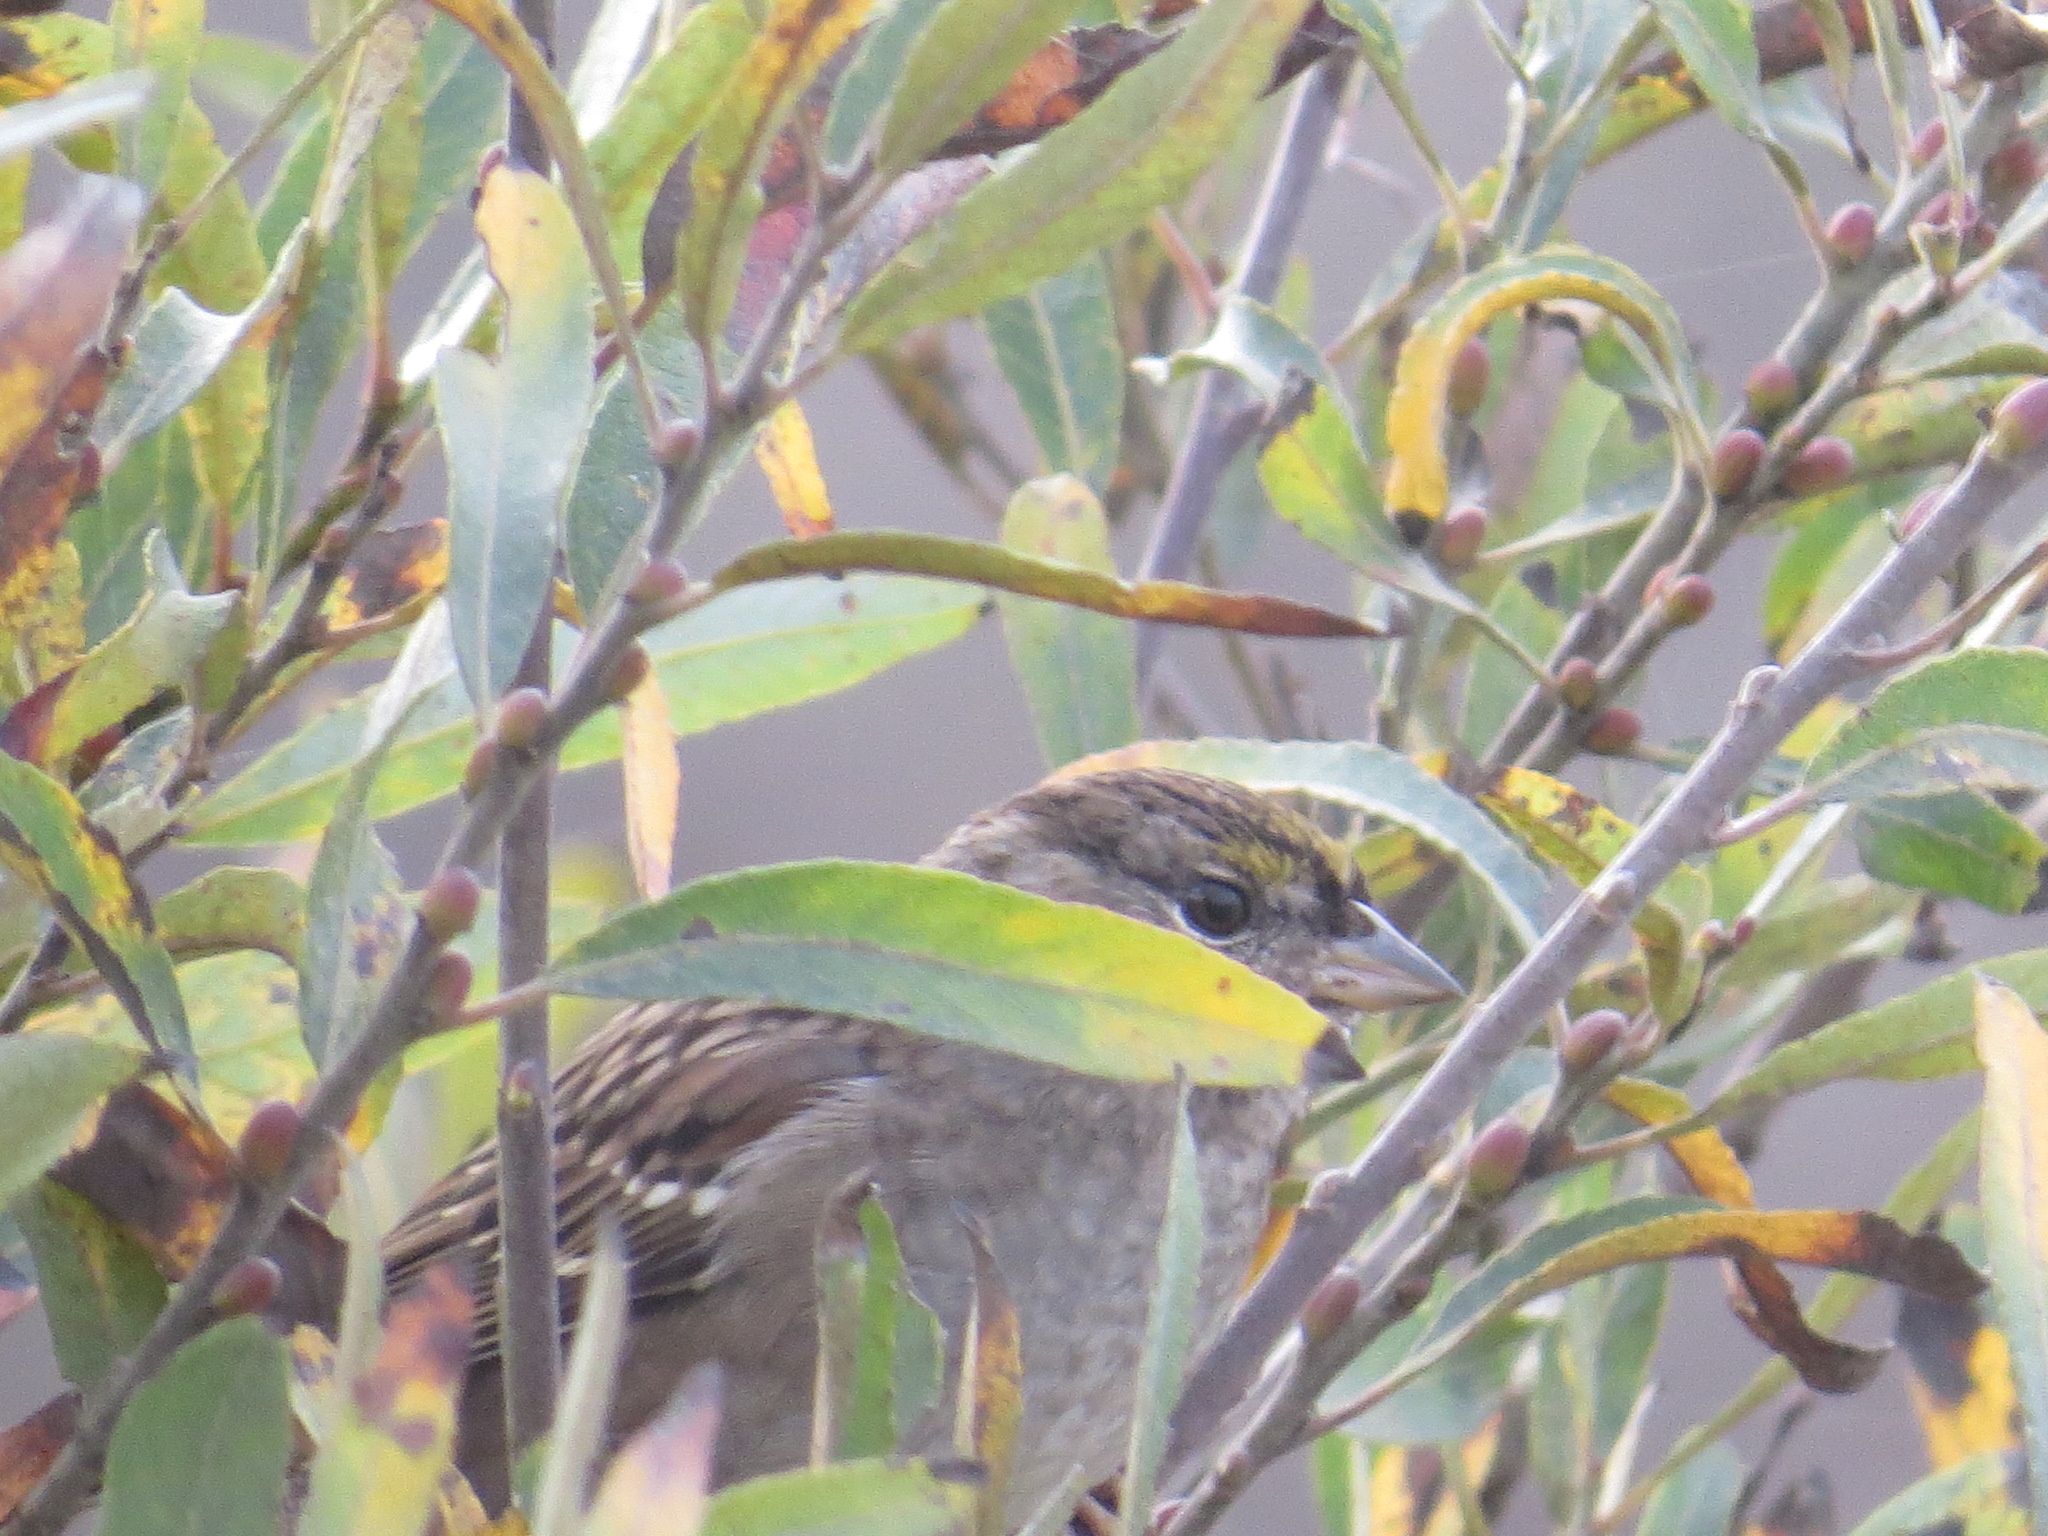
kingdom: Animalia
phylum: Chordata
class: Aves
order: Passeriformes
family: Passerellidae
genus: Zonotrichia
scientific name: Zonotrichia atricapilla
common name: Golden-crowned sparrow
